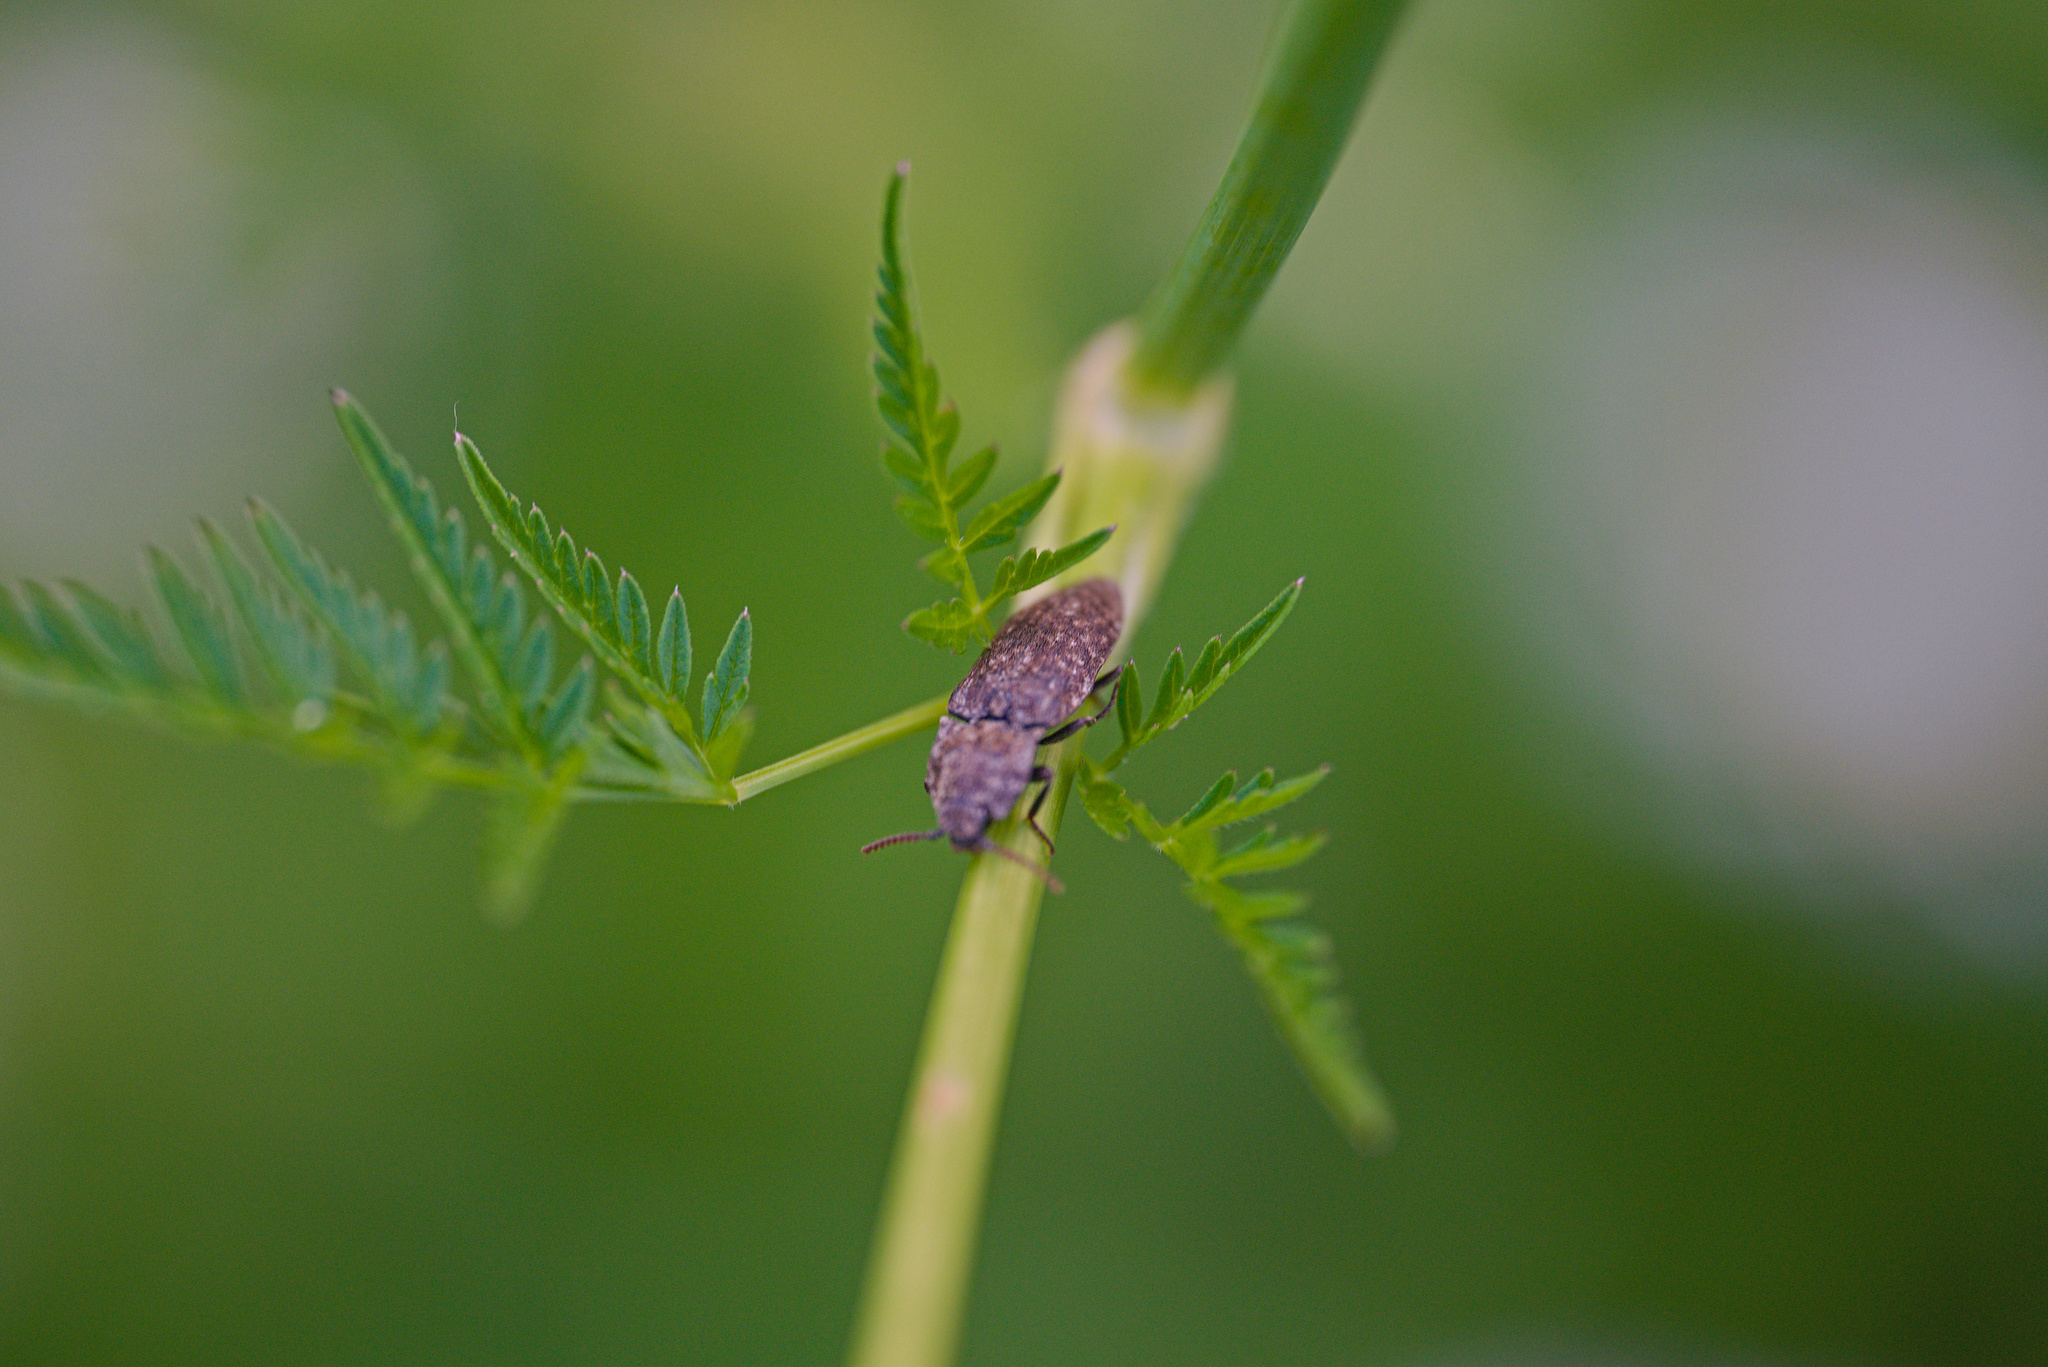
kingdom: Animalia
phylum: Arthropoda
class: Insecta
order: Coleoptera
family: Elateridae
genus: Agrypnus
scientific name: Agrypnus murinus
